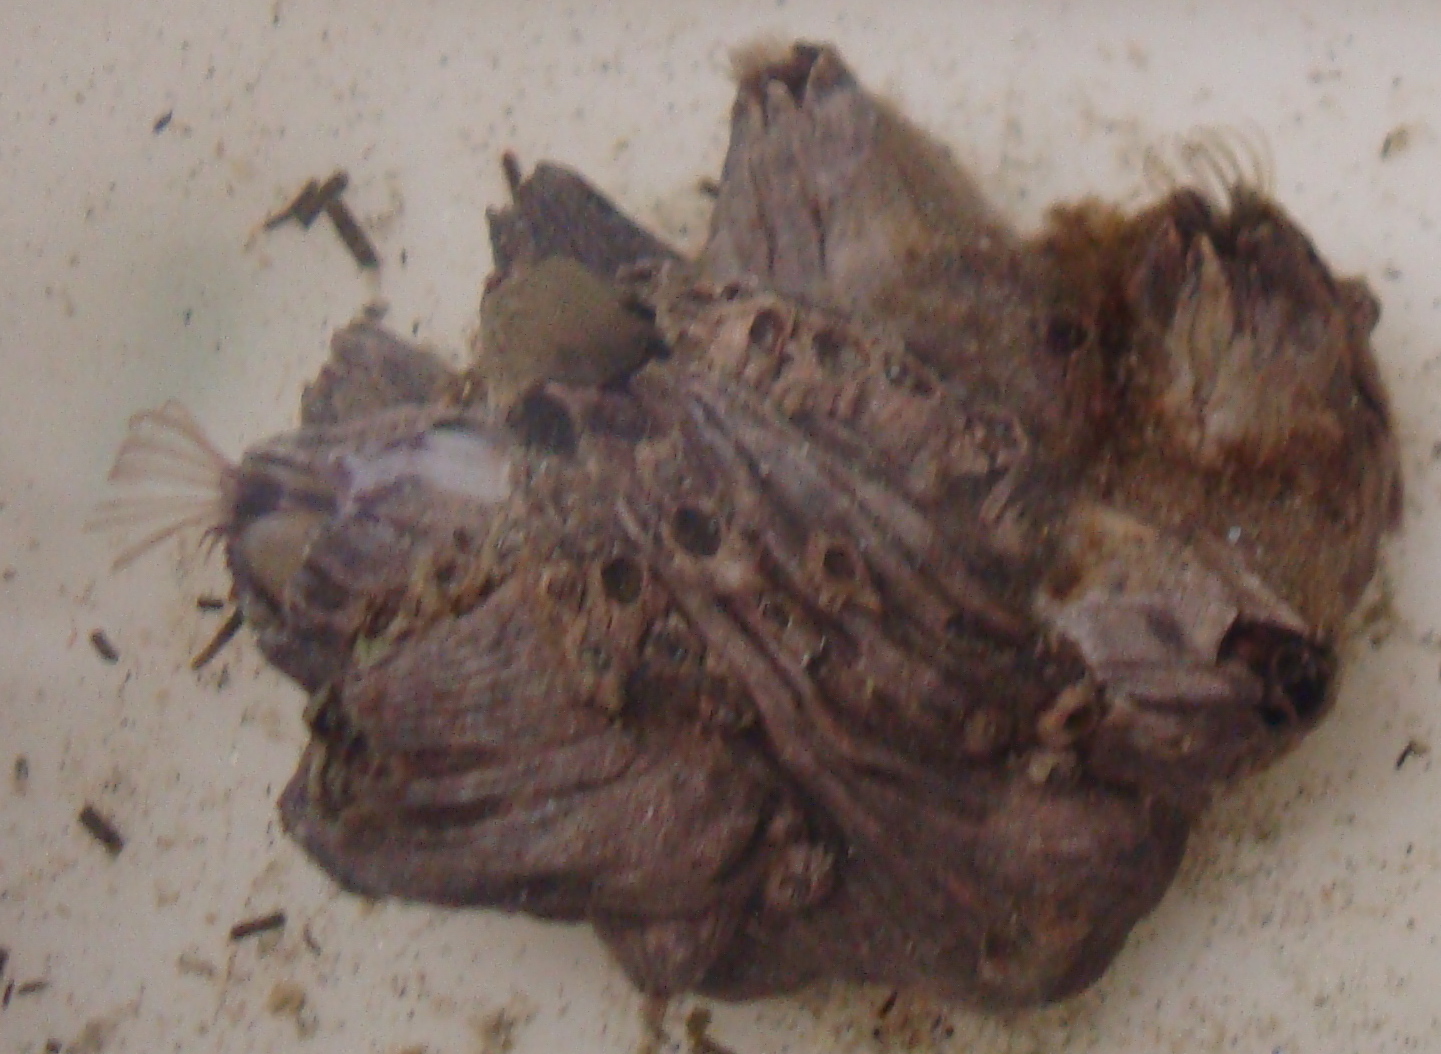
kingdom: Animalia
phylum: Arthropoda
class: Maxillopoda
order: Sessilia
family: Balanidae
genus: Perforatus
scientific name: Perforatus perforatus
